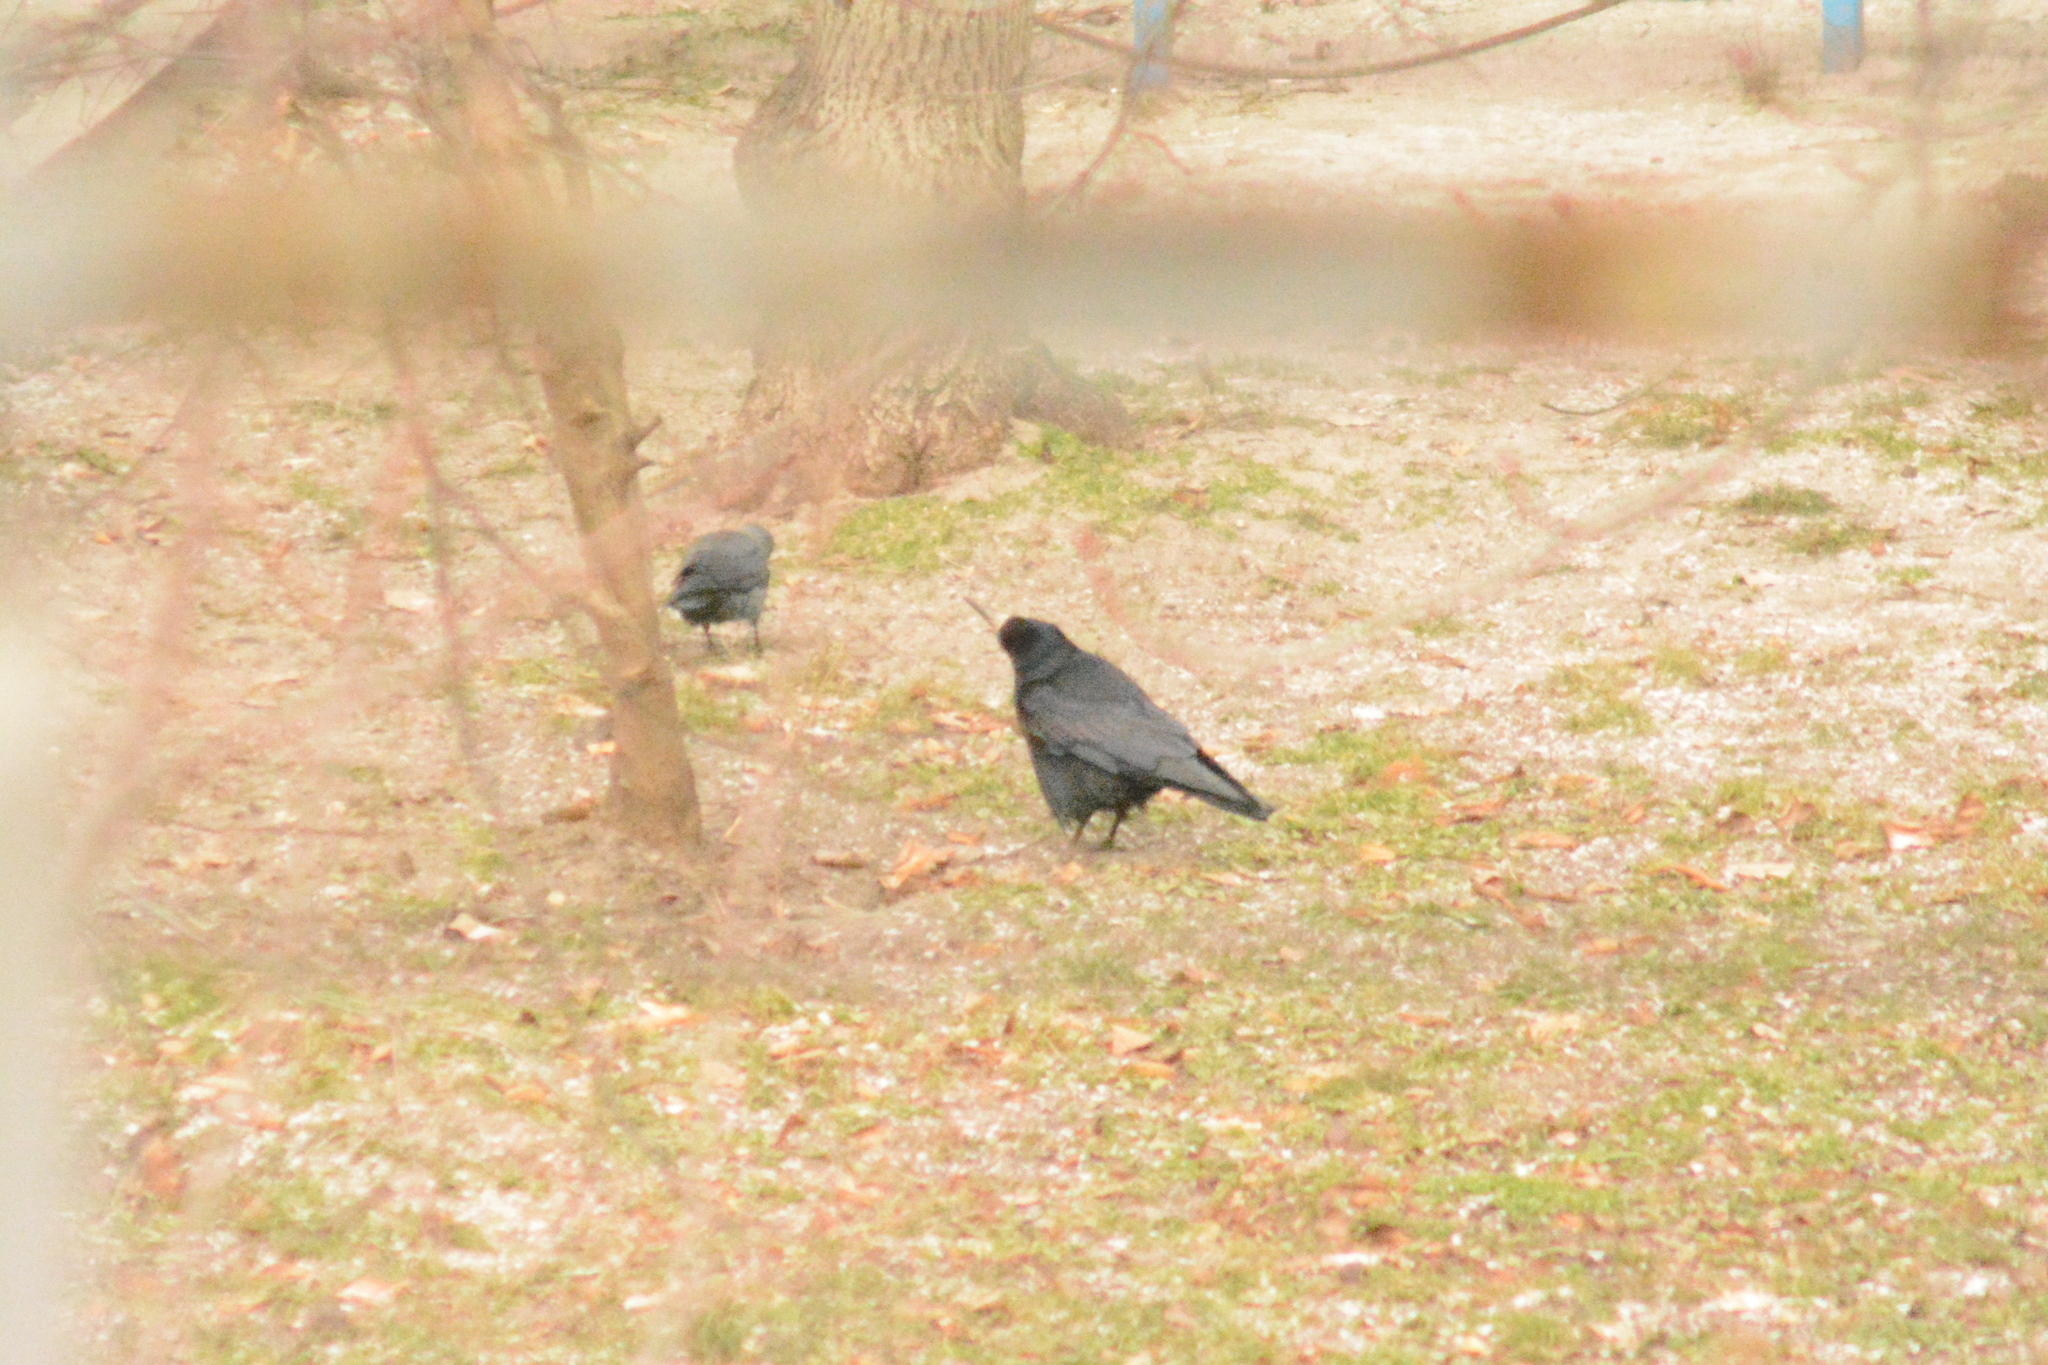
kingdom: Animalia
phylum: Chordata
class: Aves
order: Passeriformes
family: Corvidae
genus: Corvus
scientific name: Corvus frugilegus
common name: Rook
